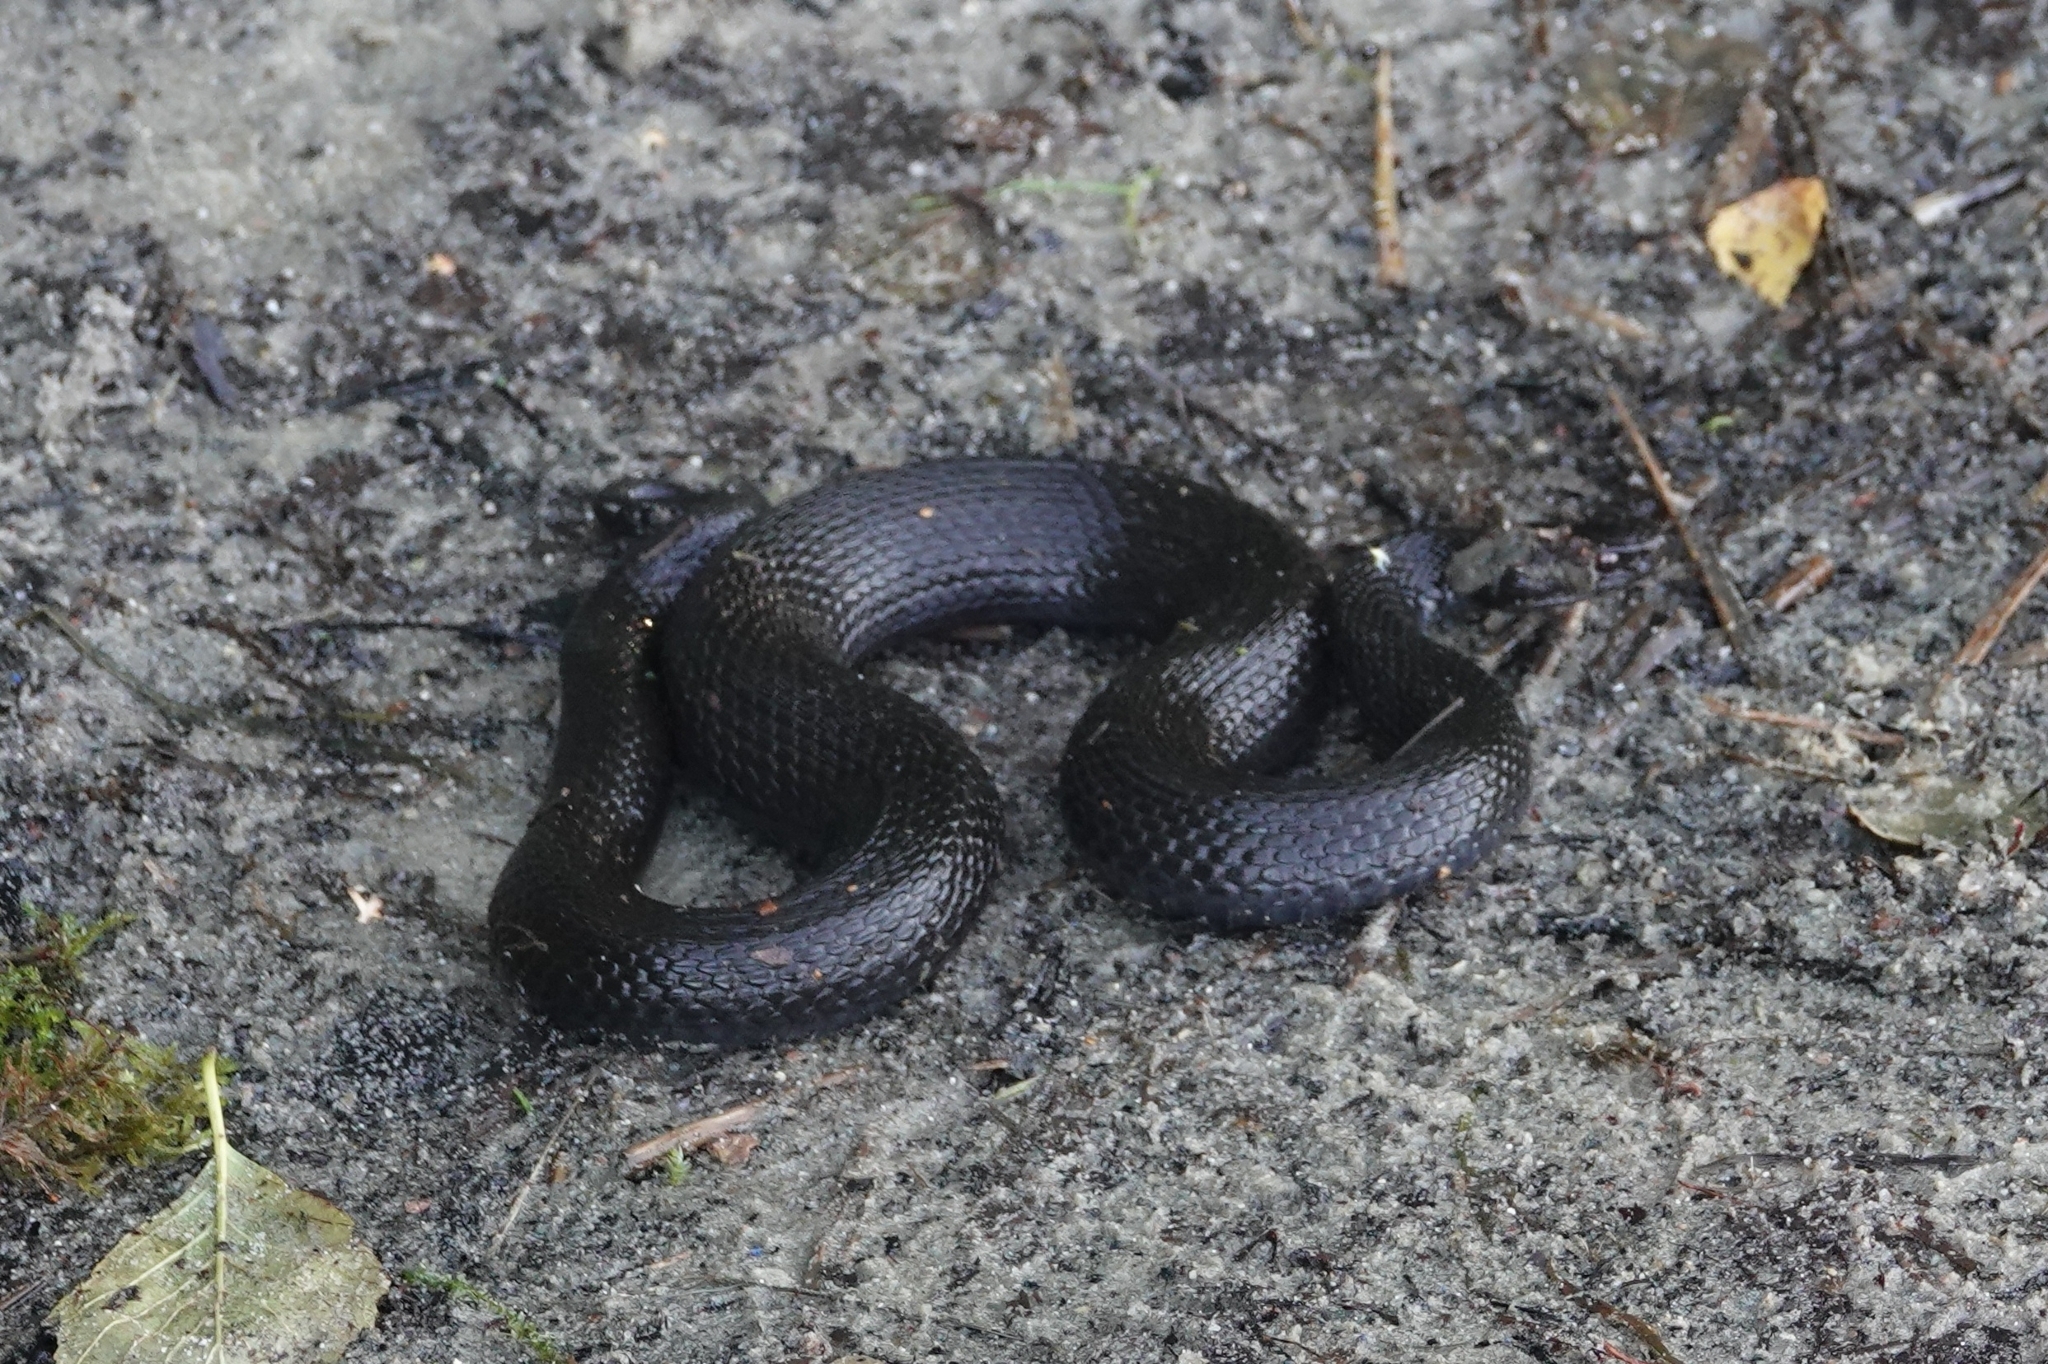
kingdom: Animalia
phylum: Chordata
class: Squamata
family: Viperidae
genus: Vipera
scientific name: Vipera berus
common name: Adder
